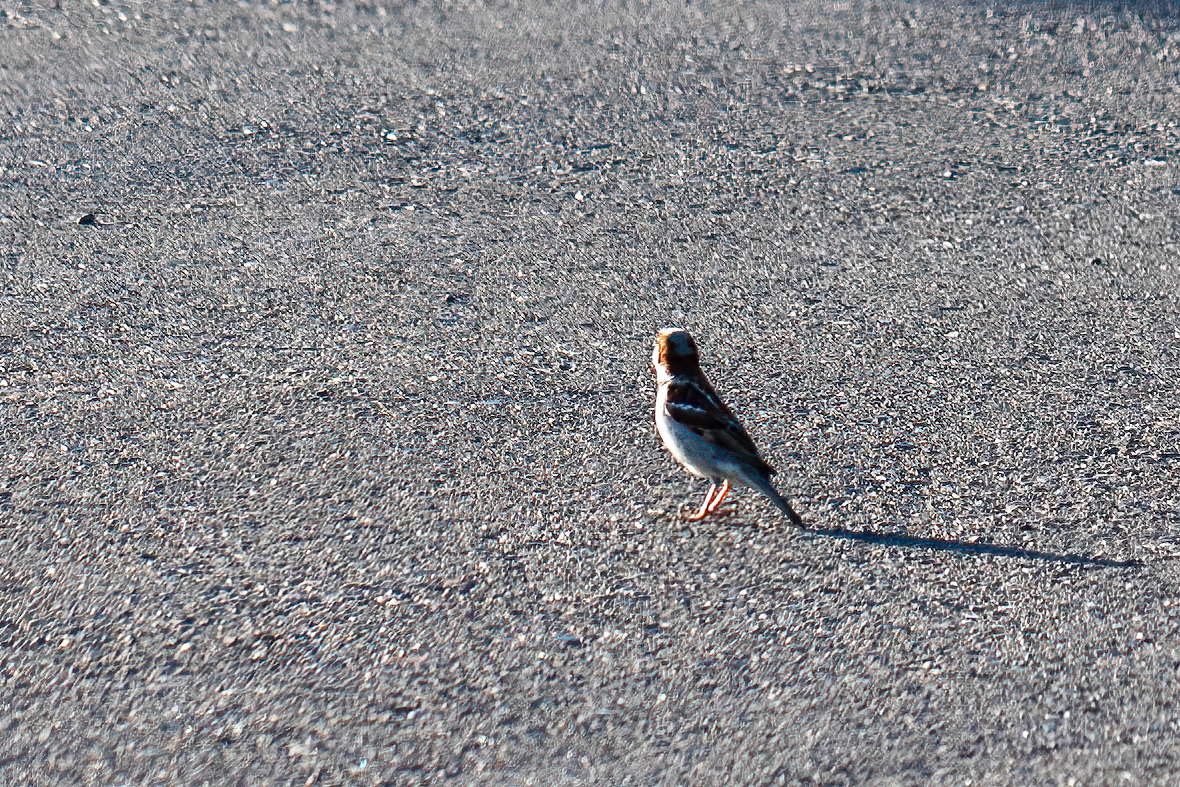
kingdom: Animalia
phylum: Chordata
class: Aves
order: Passeriformes
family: Passeridae
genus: Passer
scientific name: Passer domesticus
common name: House sparrow
